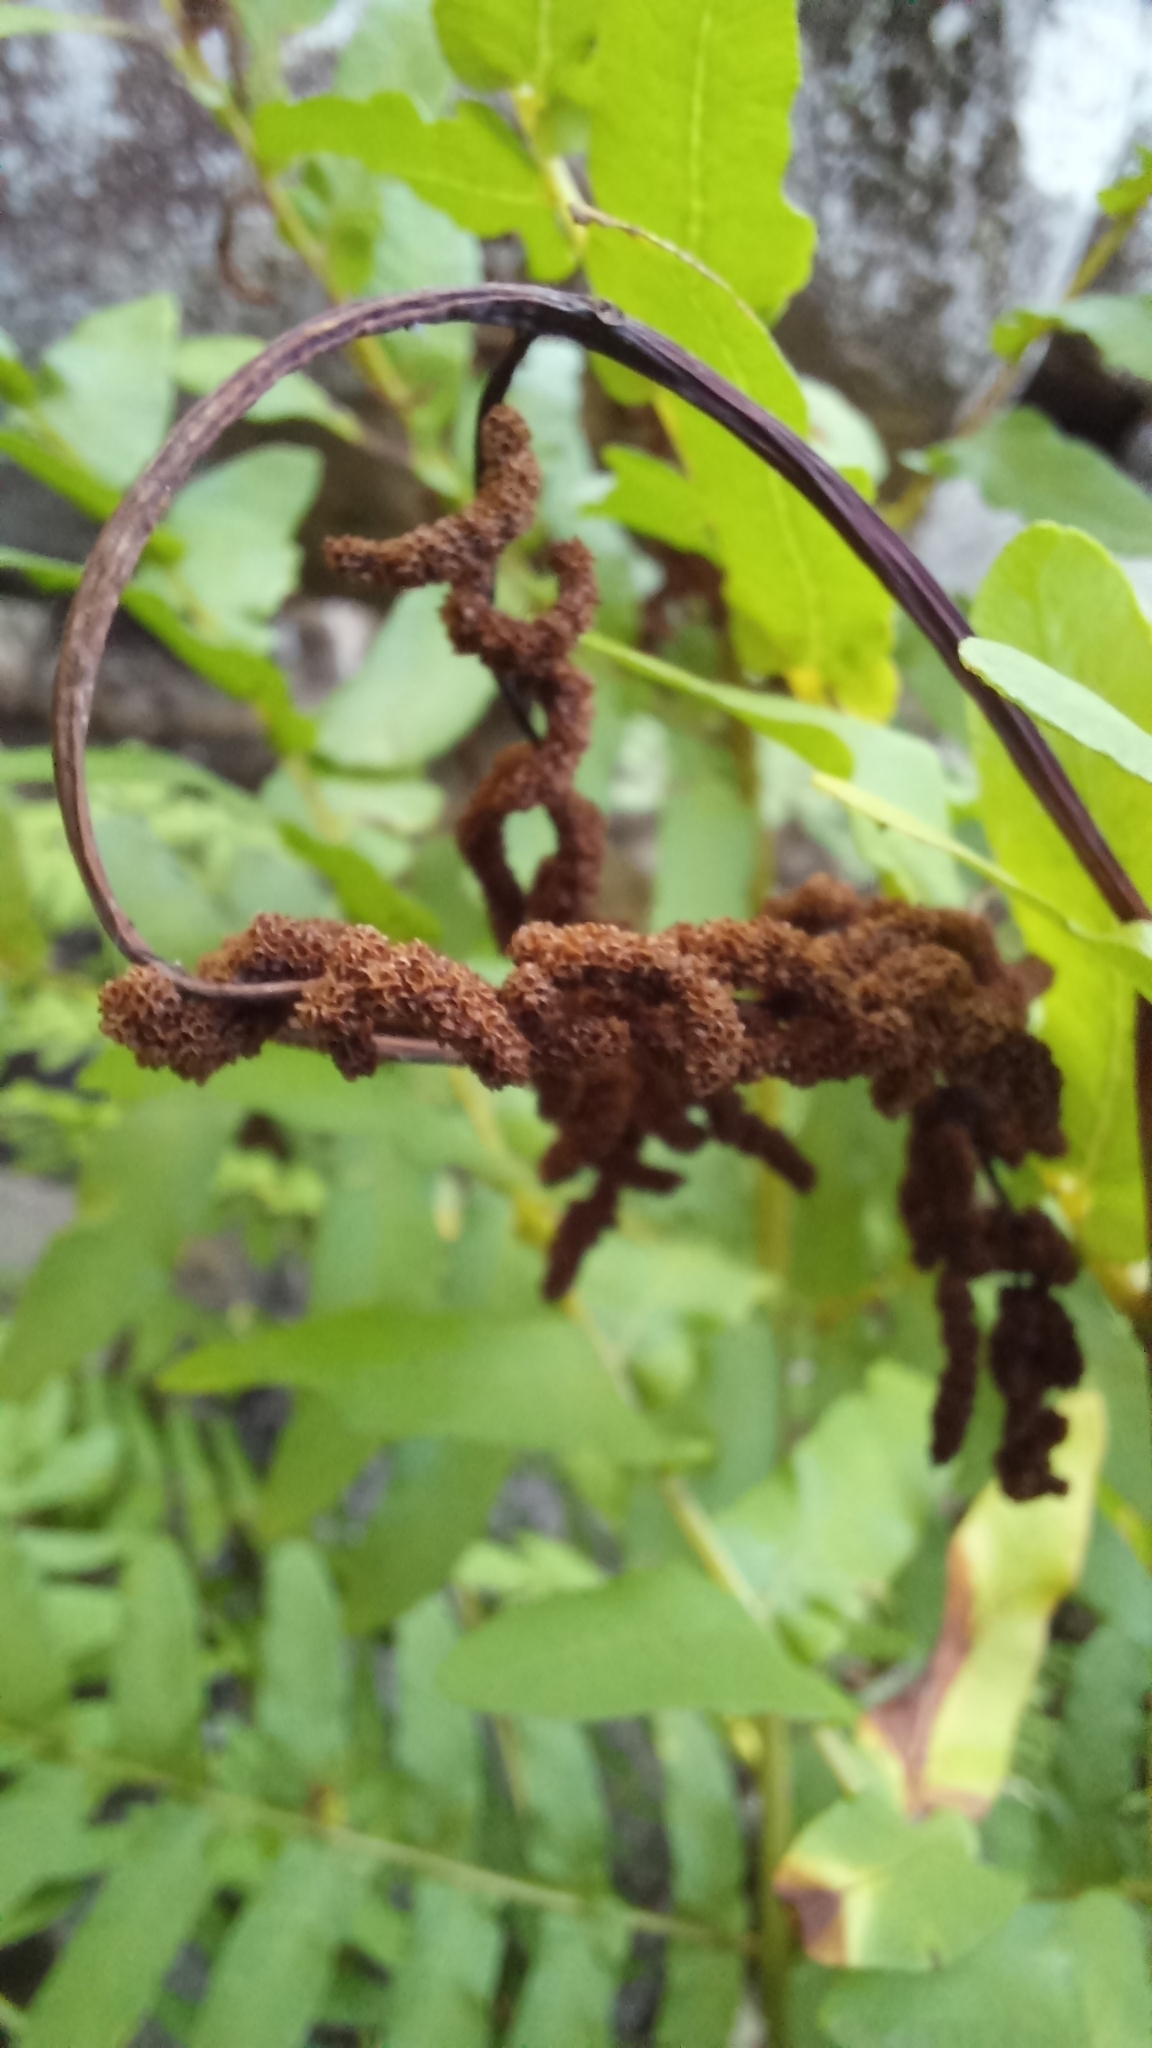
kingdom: Plantae
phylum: Tracheophyta
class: Polypodiopsida
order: Osmundales
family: Osmundaceae
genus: Osmunda
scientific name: Osmunda regalis
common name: Royal fern
